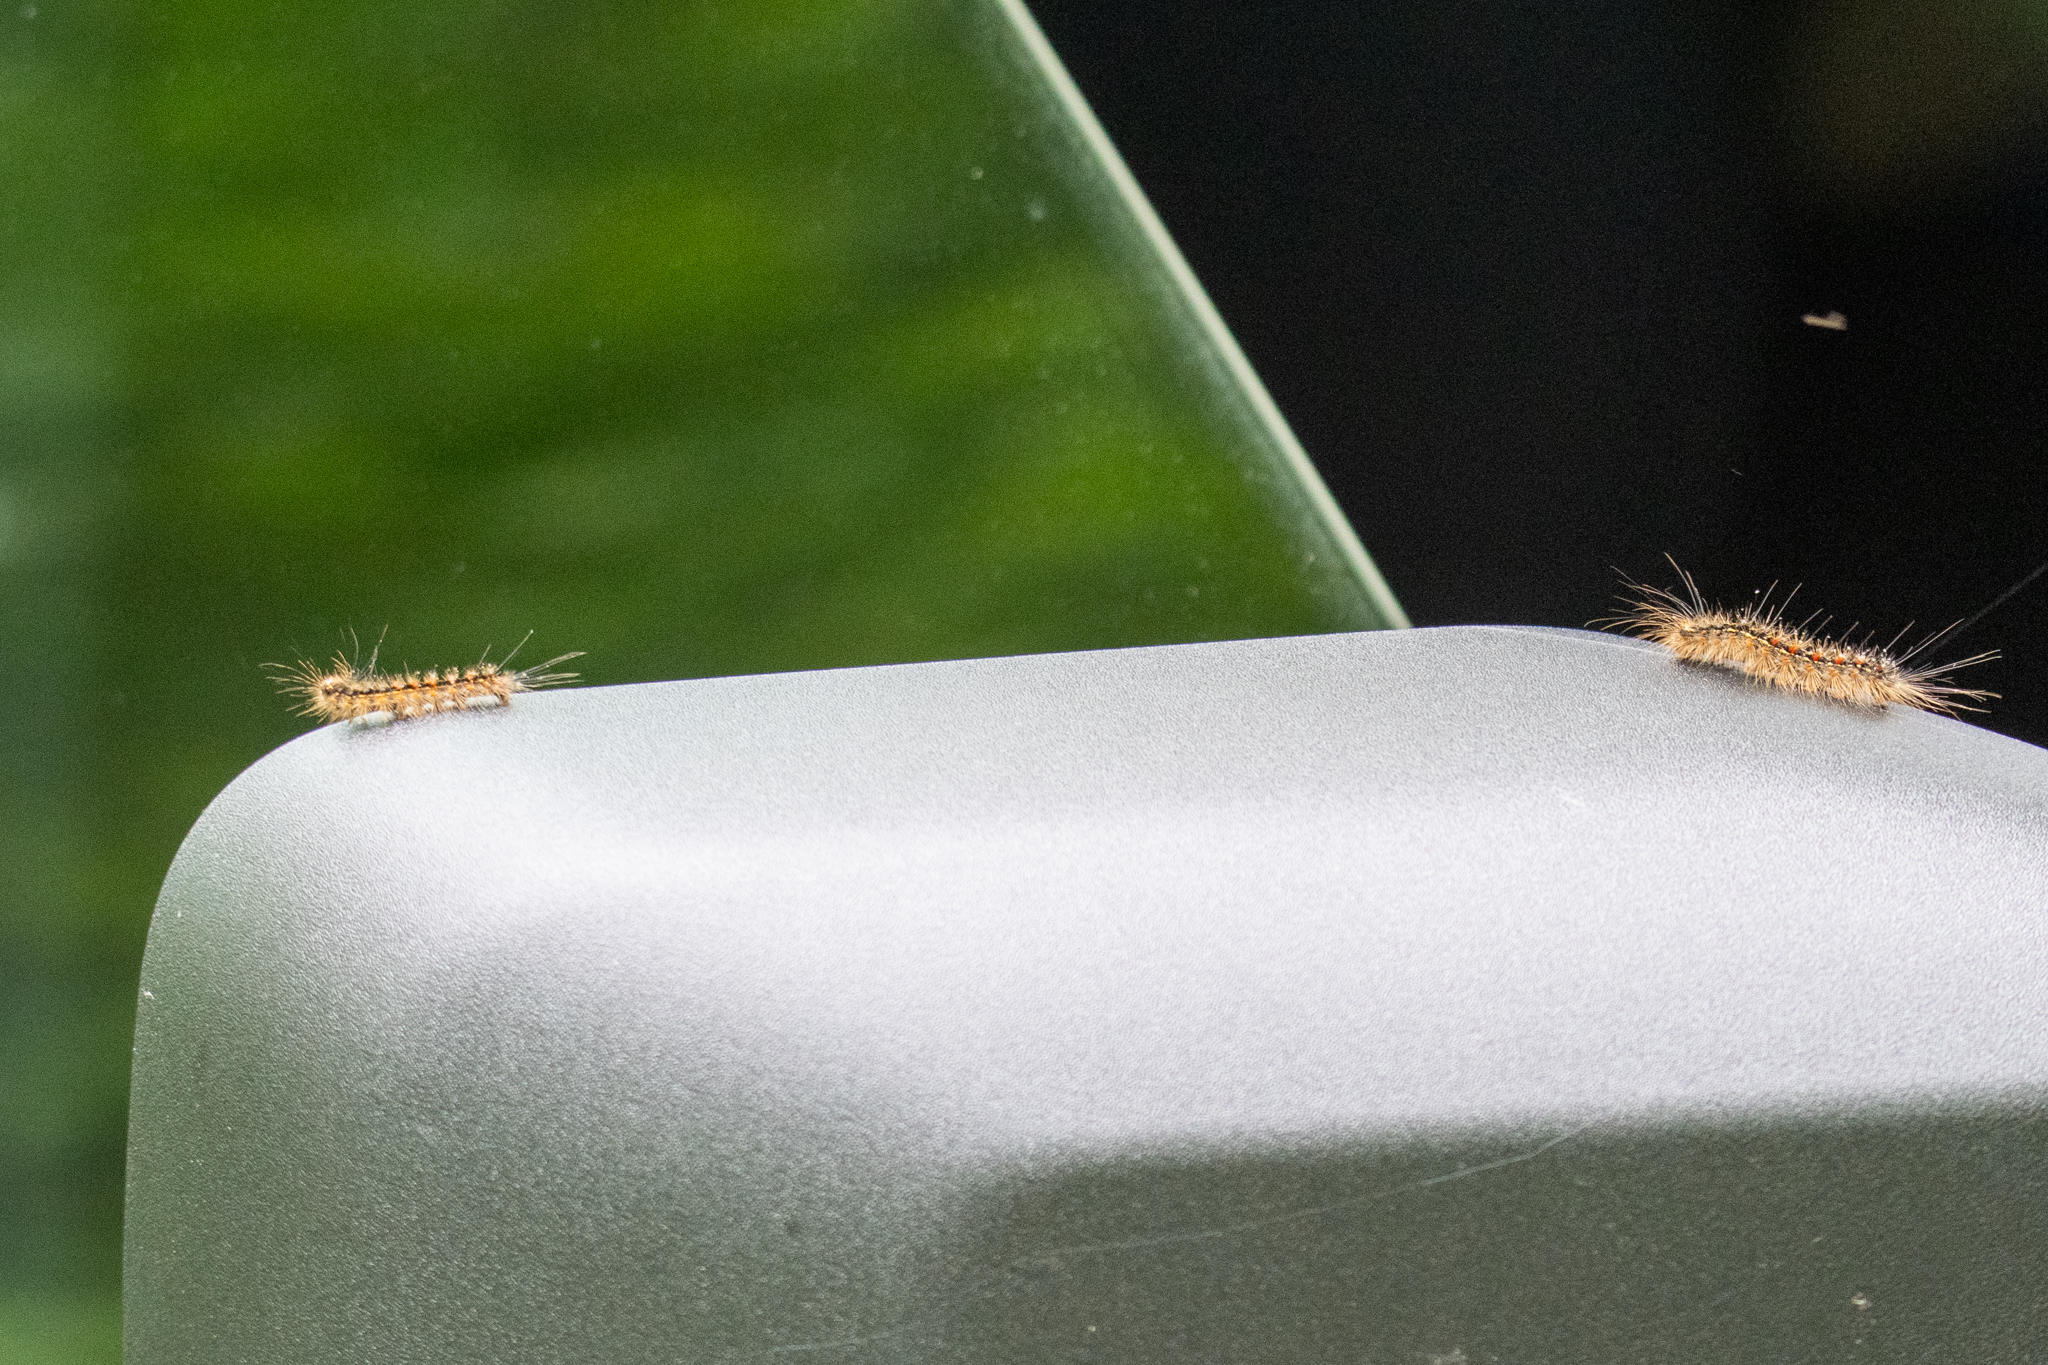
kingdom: Animalia
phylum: Arthropoda
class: Insecta
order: Lepidoptera
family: Erebidae
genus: Lymantria
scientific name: Lymantria dispar
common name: Gypsy moth
